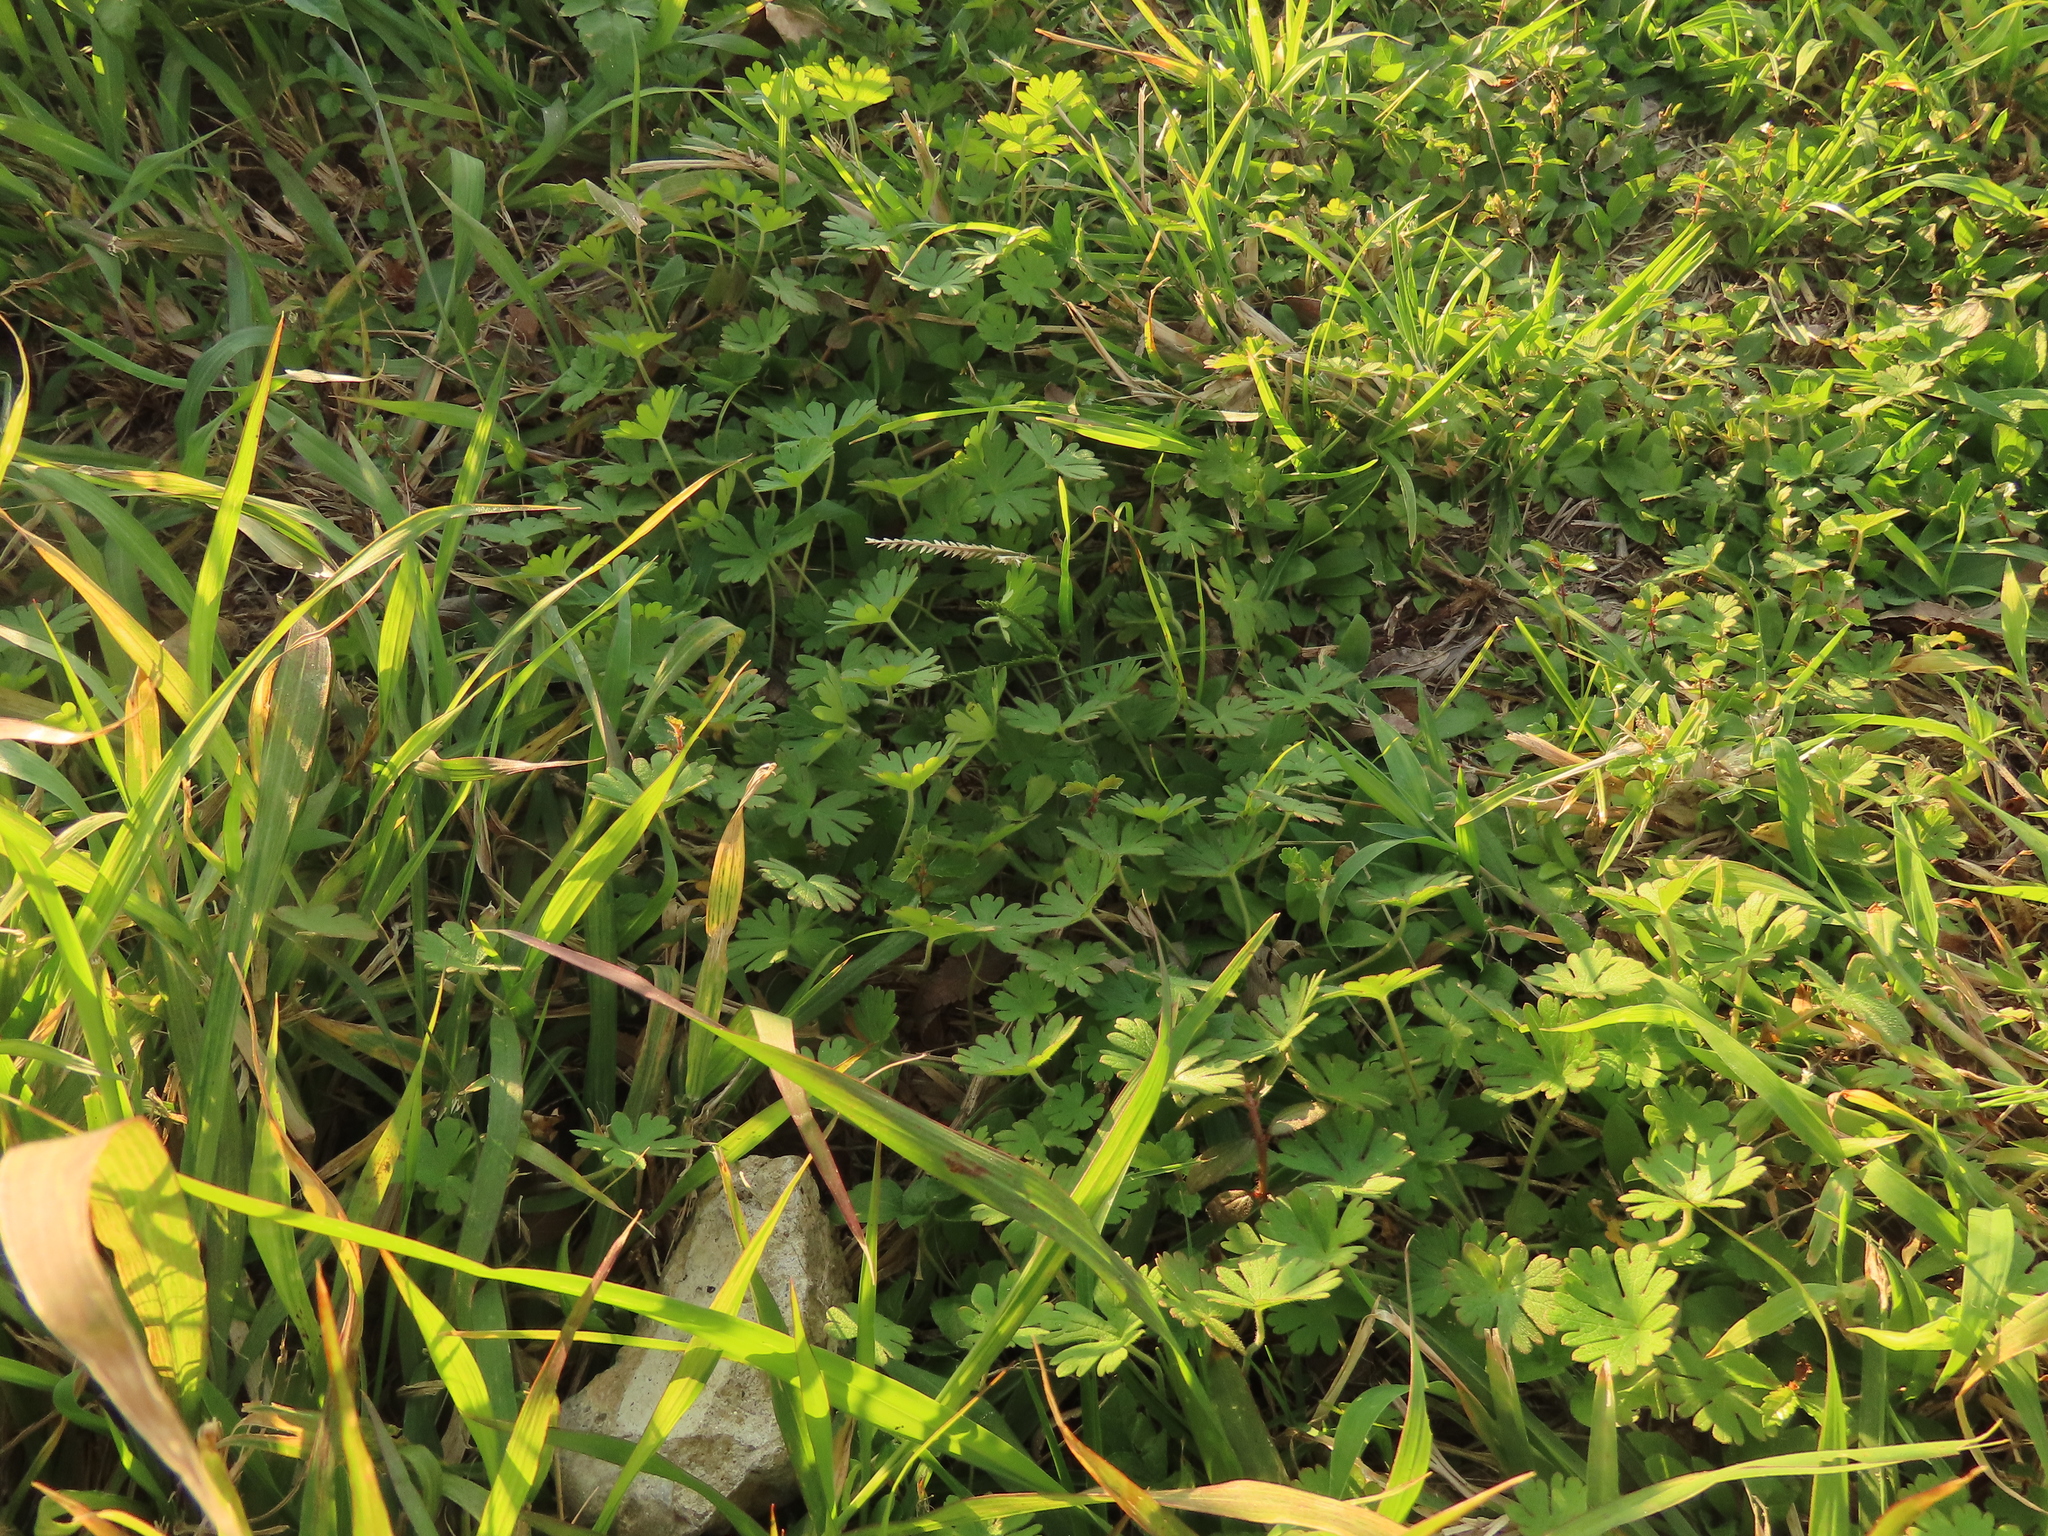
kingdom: Plantae
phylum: Tracheophyta
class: Magnoliopsida
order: Geraniales
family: Geraniaceae
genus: Geranium
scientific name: Geranium carolinianum
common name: Carolina crane's-bill
